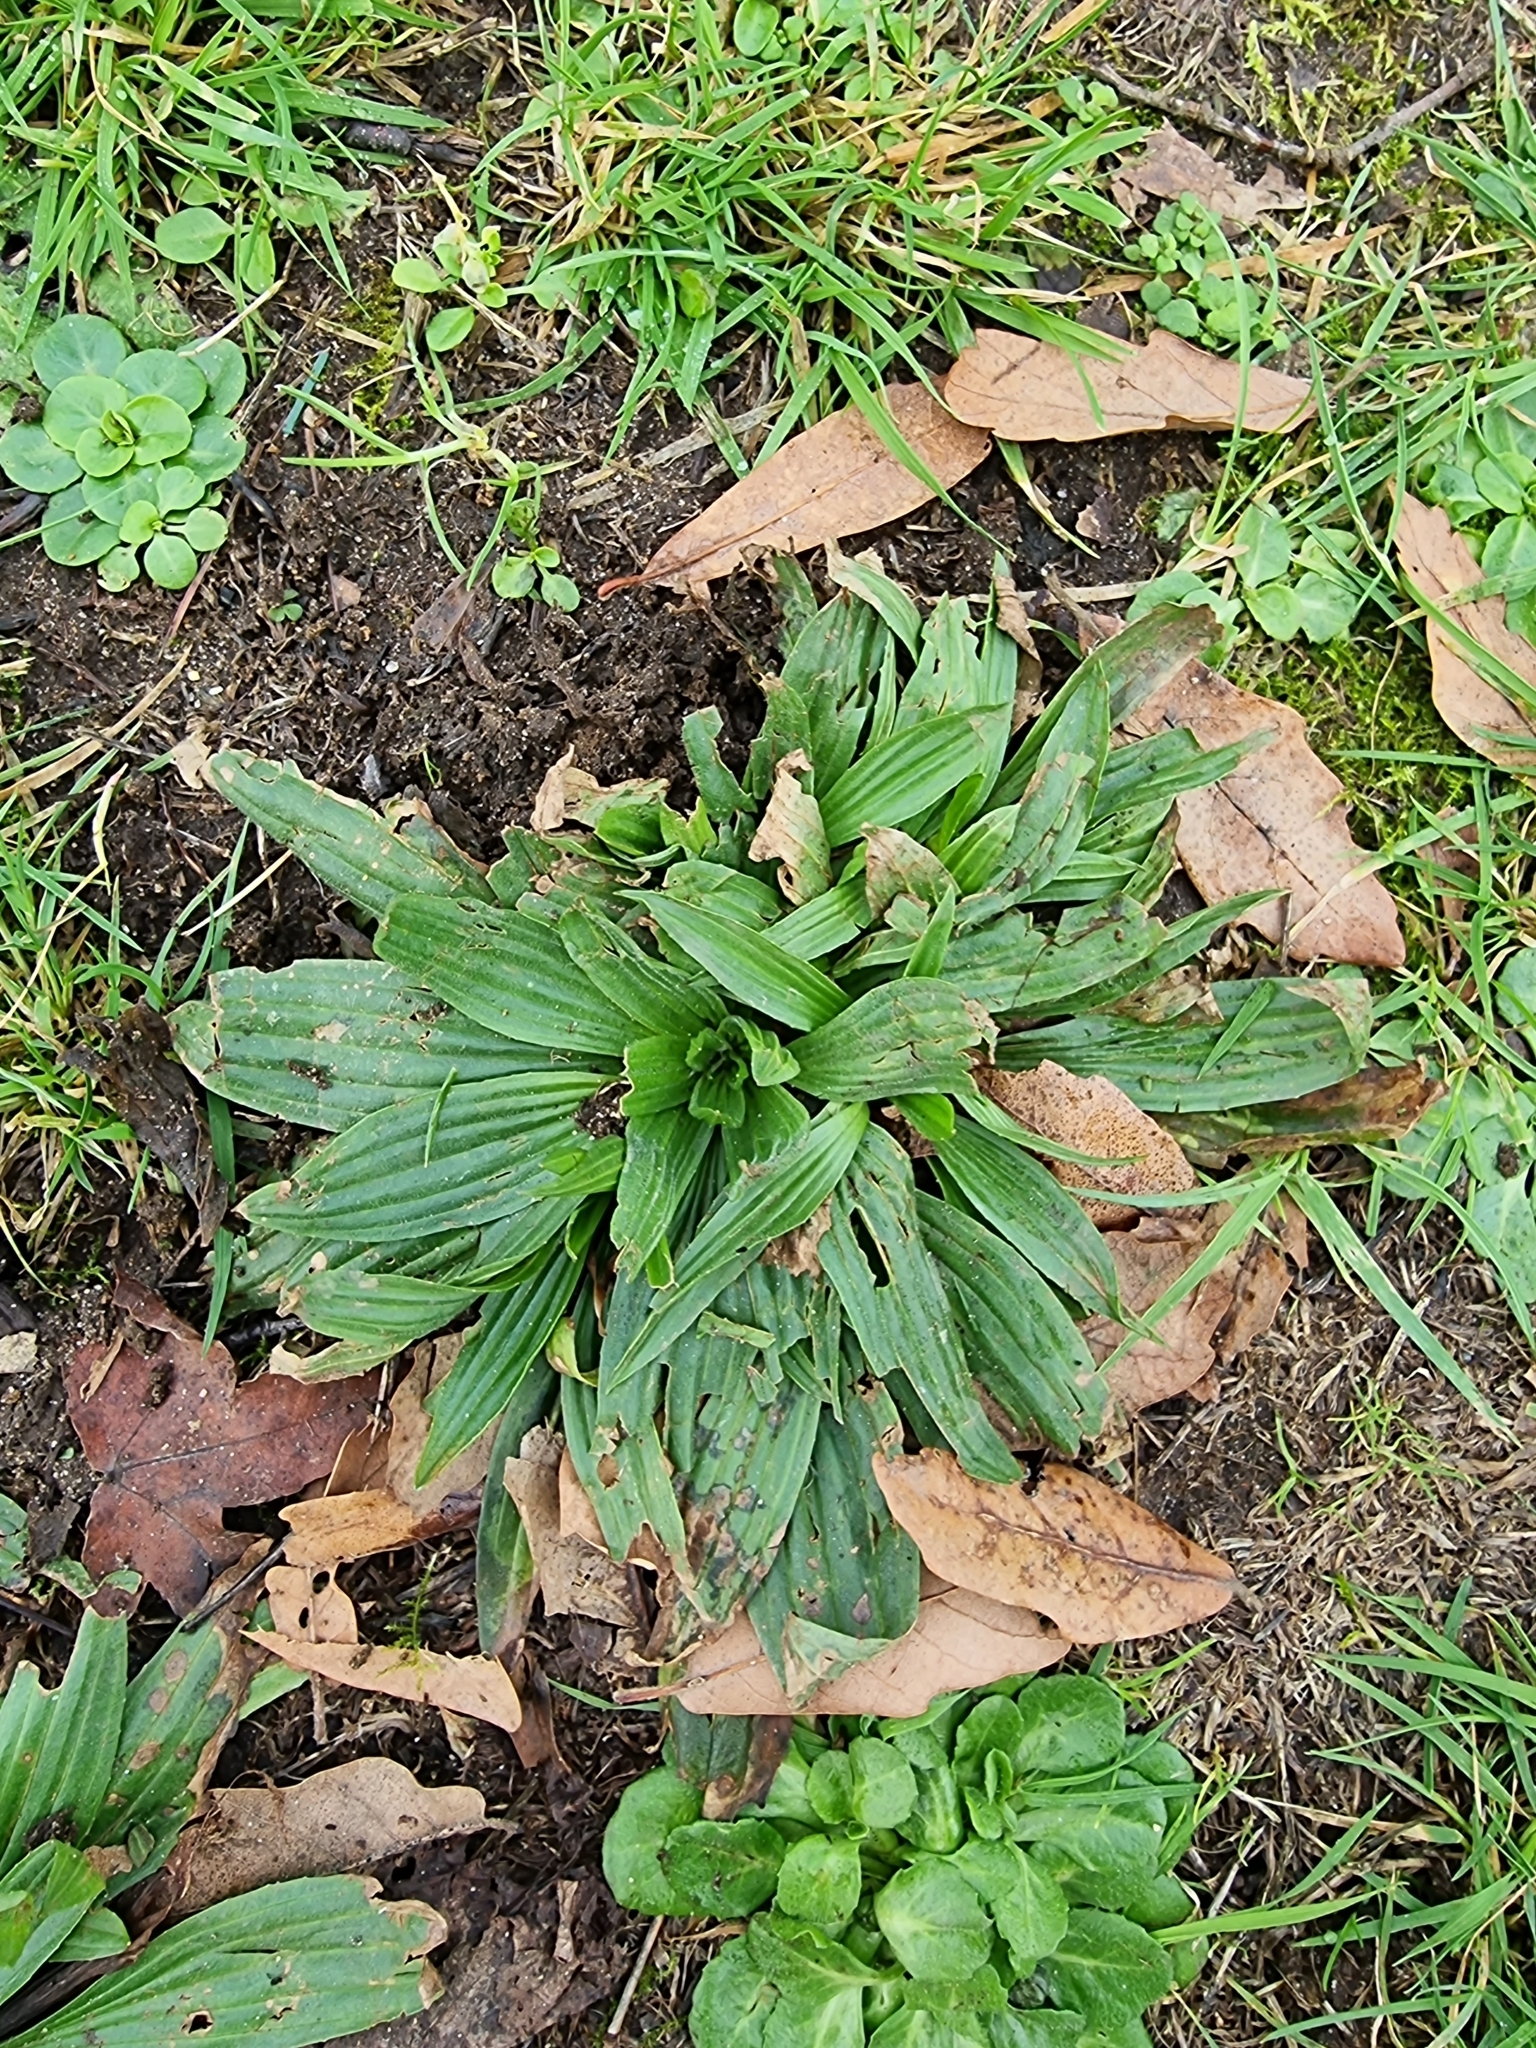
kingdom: Plantae
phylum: Tracheophyta
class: Magnoliopsida
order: Lamiales
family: Plantaginaceae
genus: Plantago
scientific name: Plantago lanceolata
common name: Ribwort plantain
